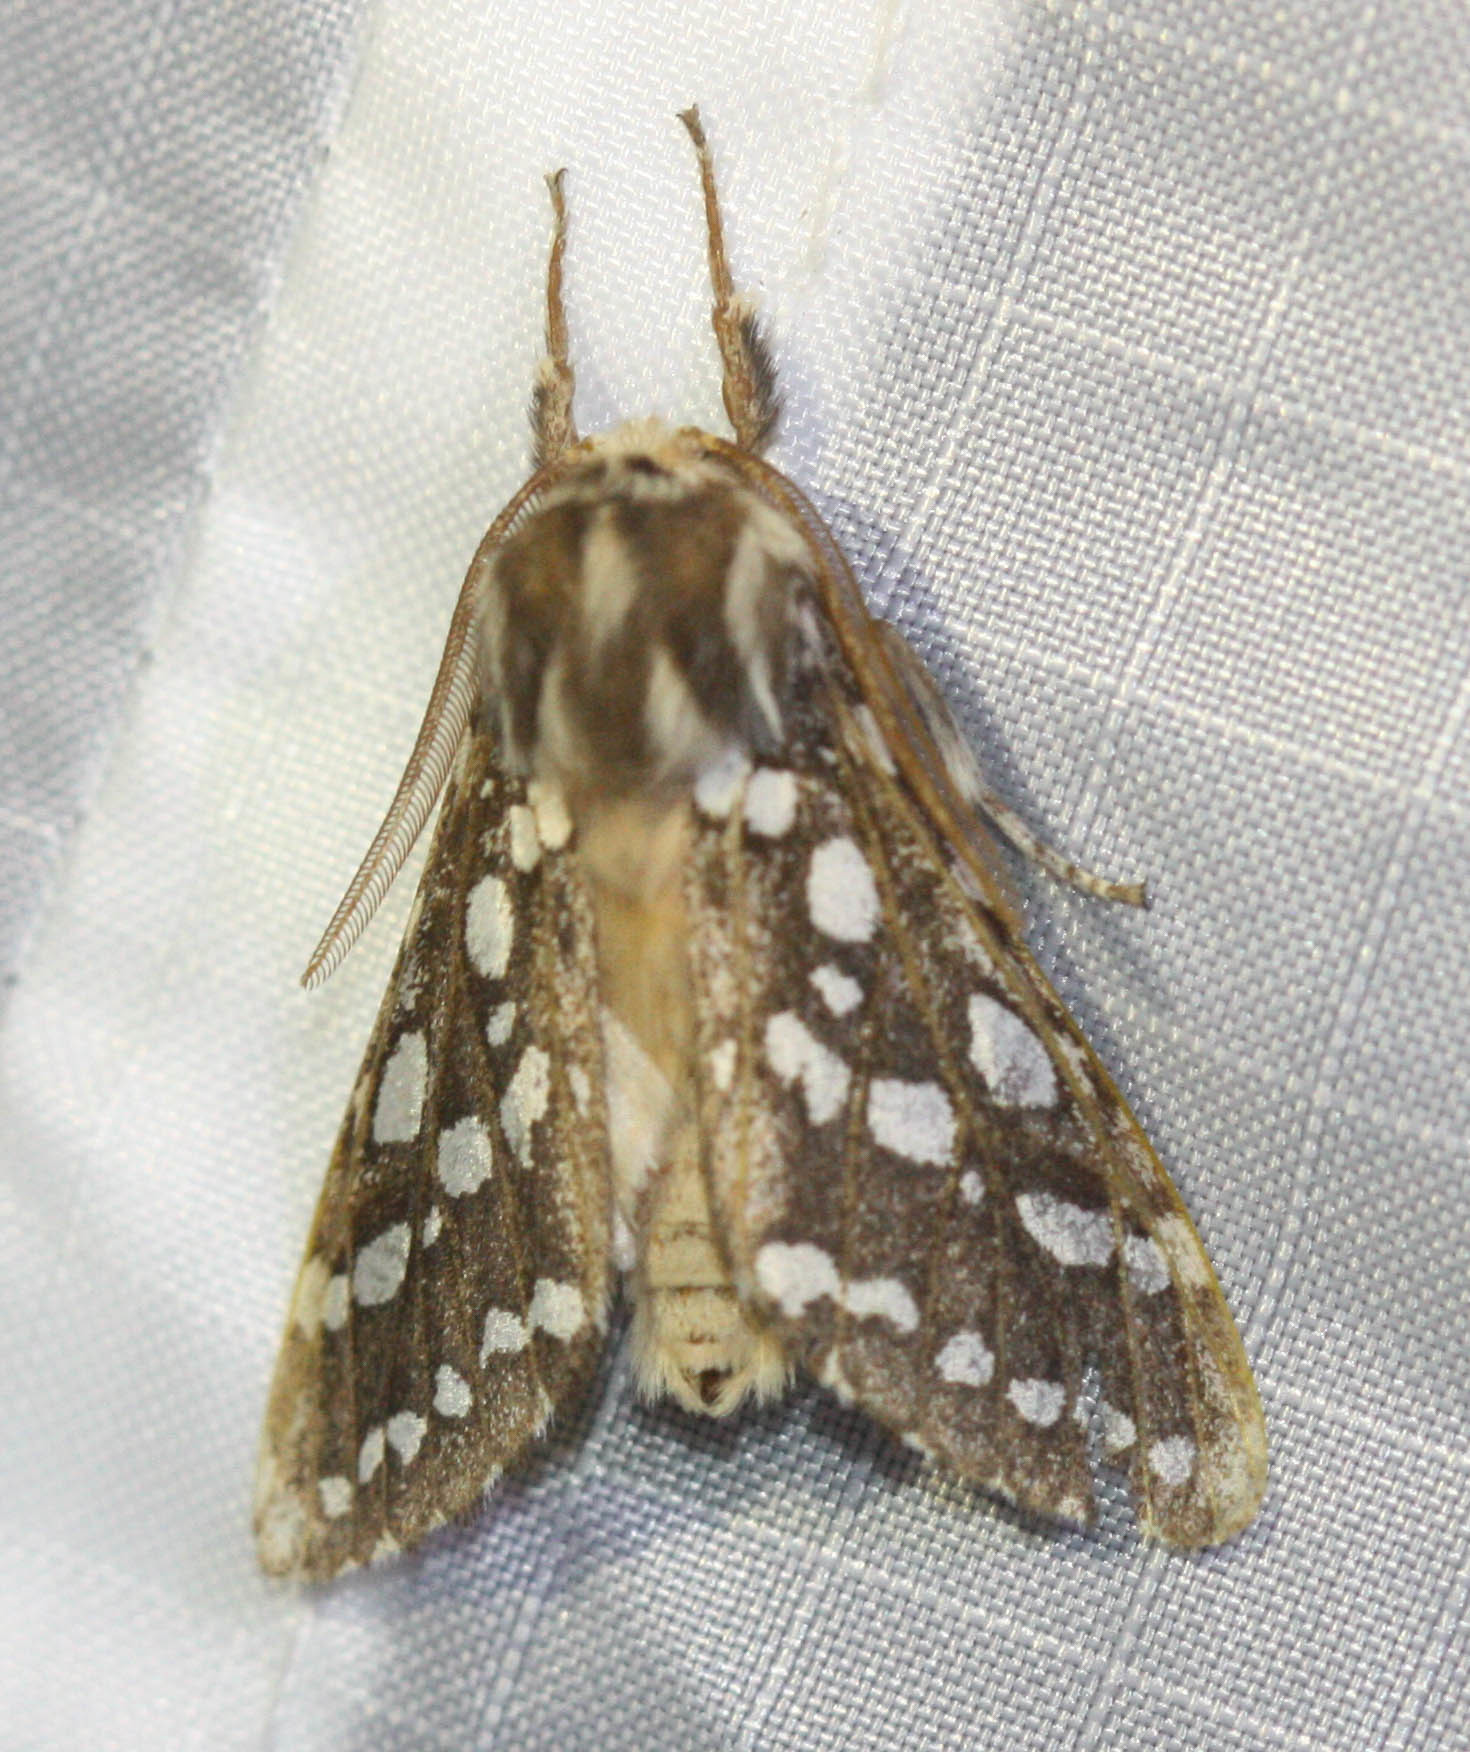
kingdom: Animalia
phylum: Arthropoda
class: Insecta
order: Lepidoptera
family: Erebidae
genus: Lophocampa
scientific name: Lophocampa argentata
